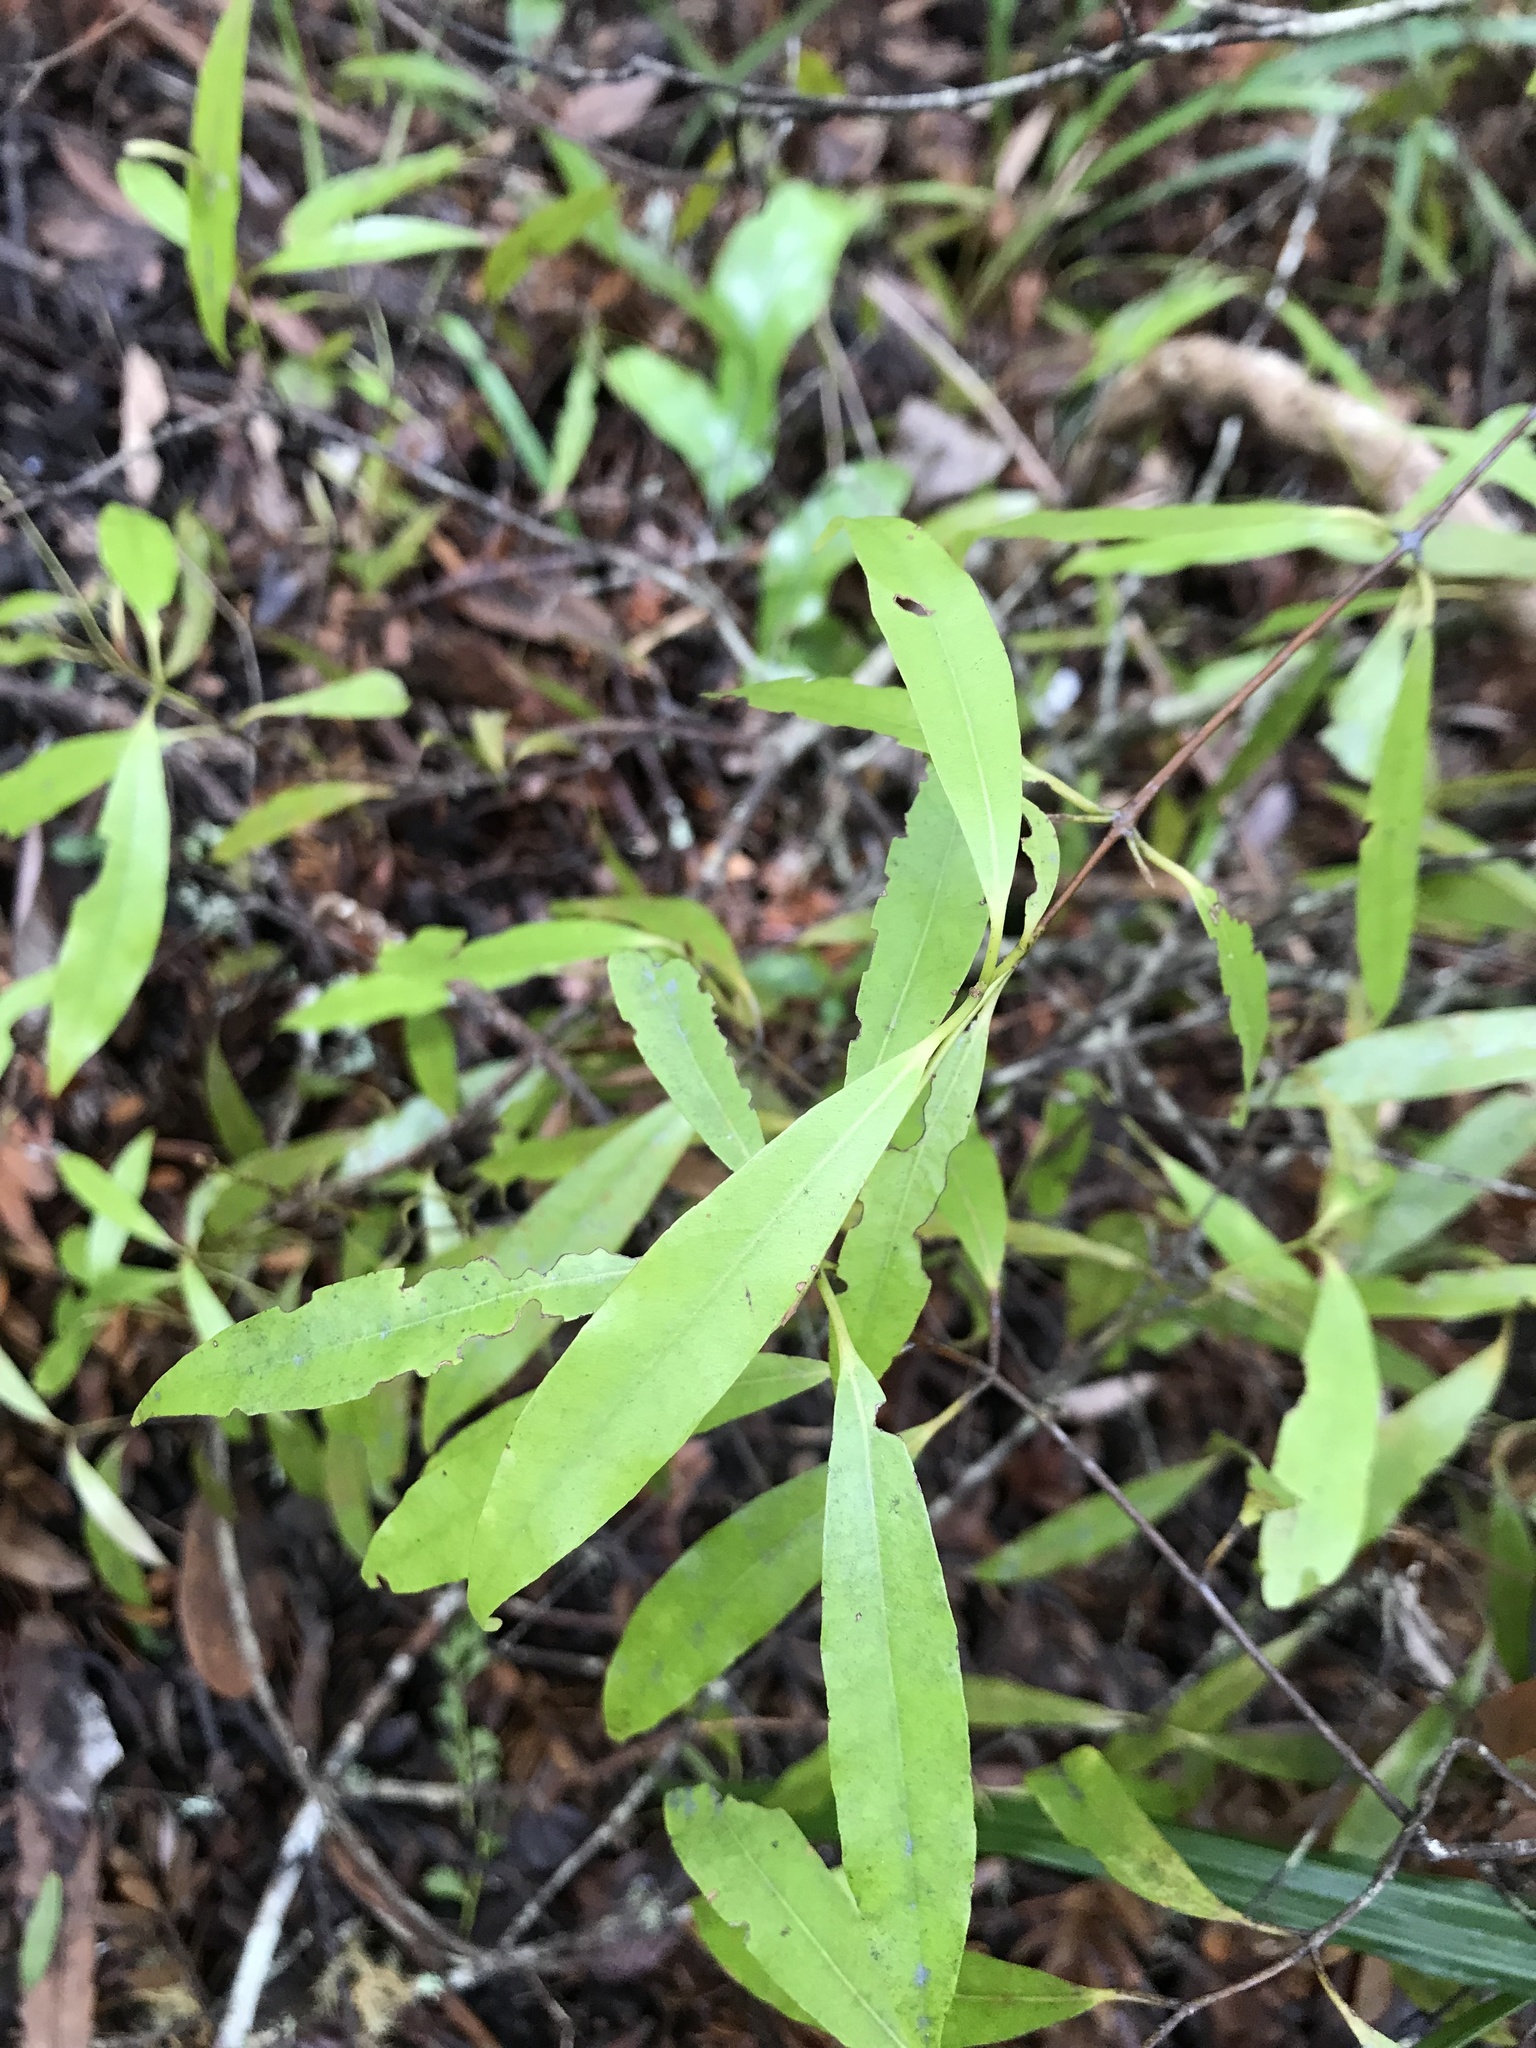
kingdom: Plantae
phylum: Tracheophyta
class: Magnoliopsida
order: Laurales
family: Lauraceae
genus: Beilschmiedia
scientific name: Beilschmiedia tawa
